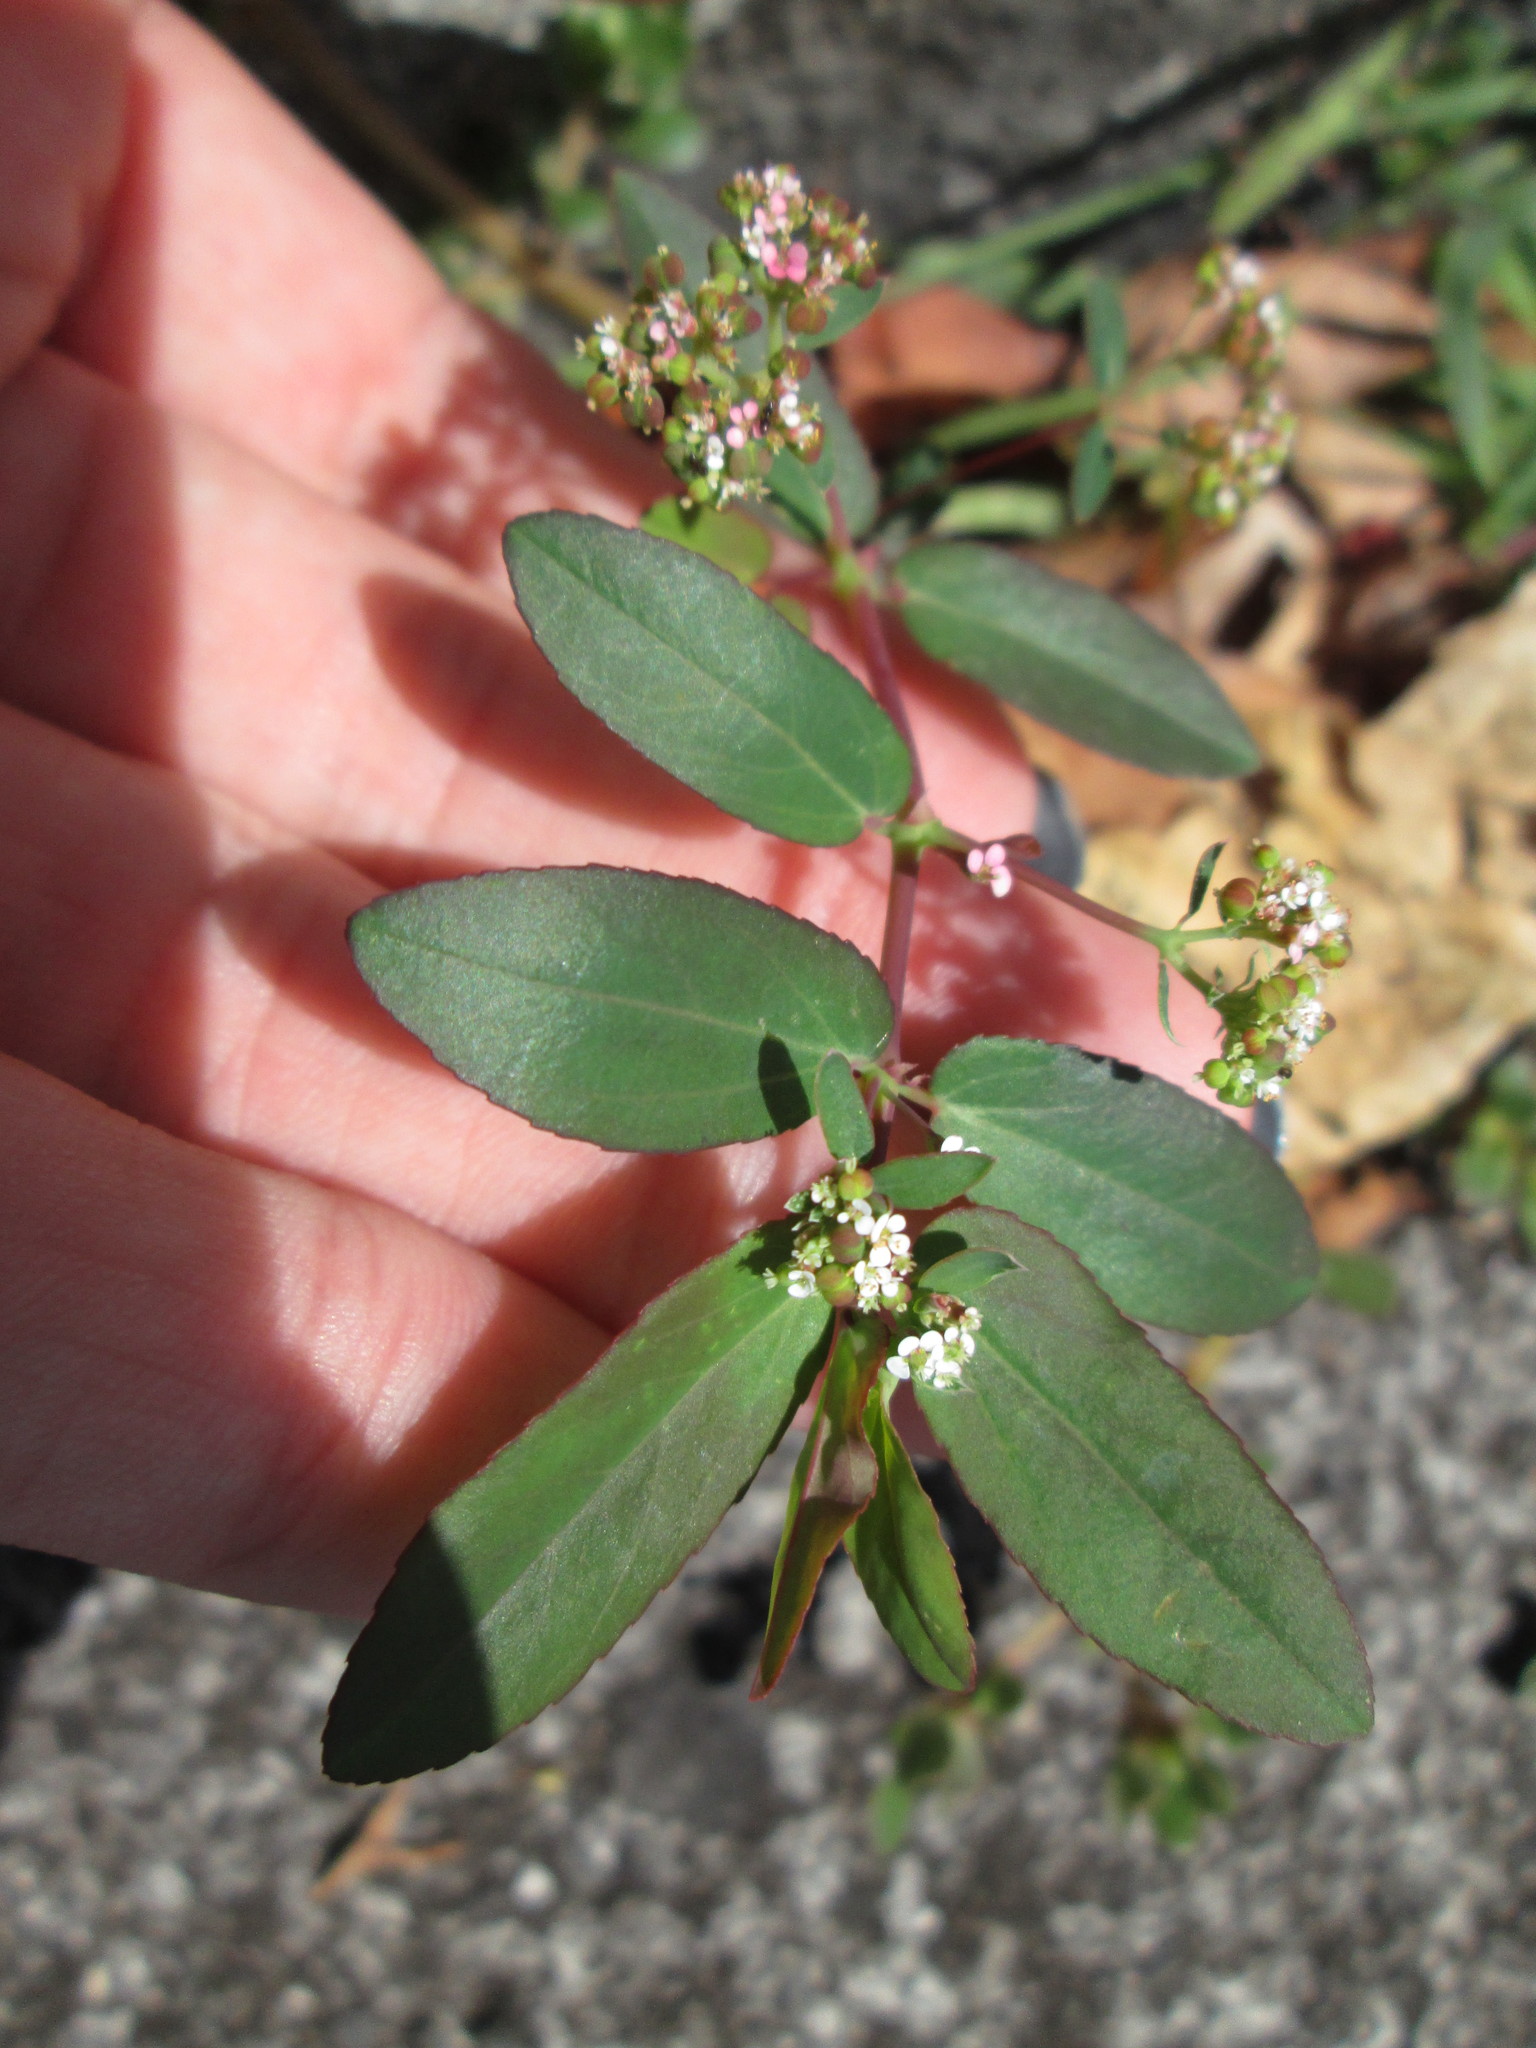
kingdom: Plantae
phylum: Tracheophyta
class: Magnoliopsida
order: Malpighiales
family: Euphorbiaceae
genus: Euphorbia
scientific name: Euphorbia hypericifolia
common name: Graceful sandmat
